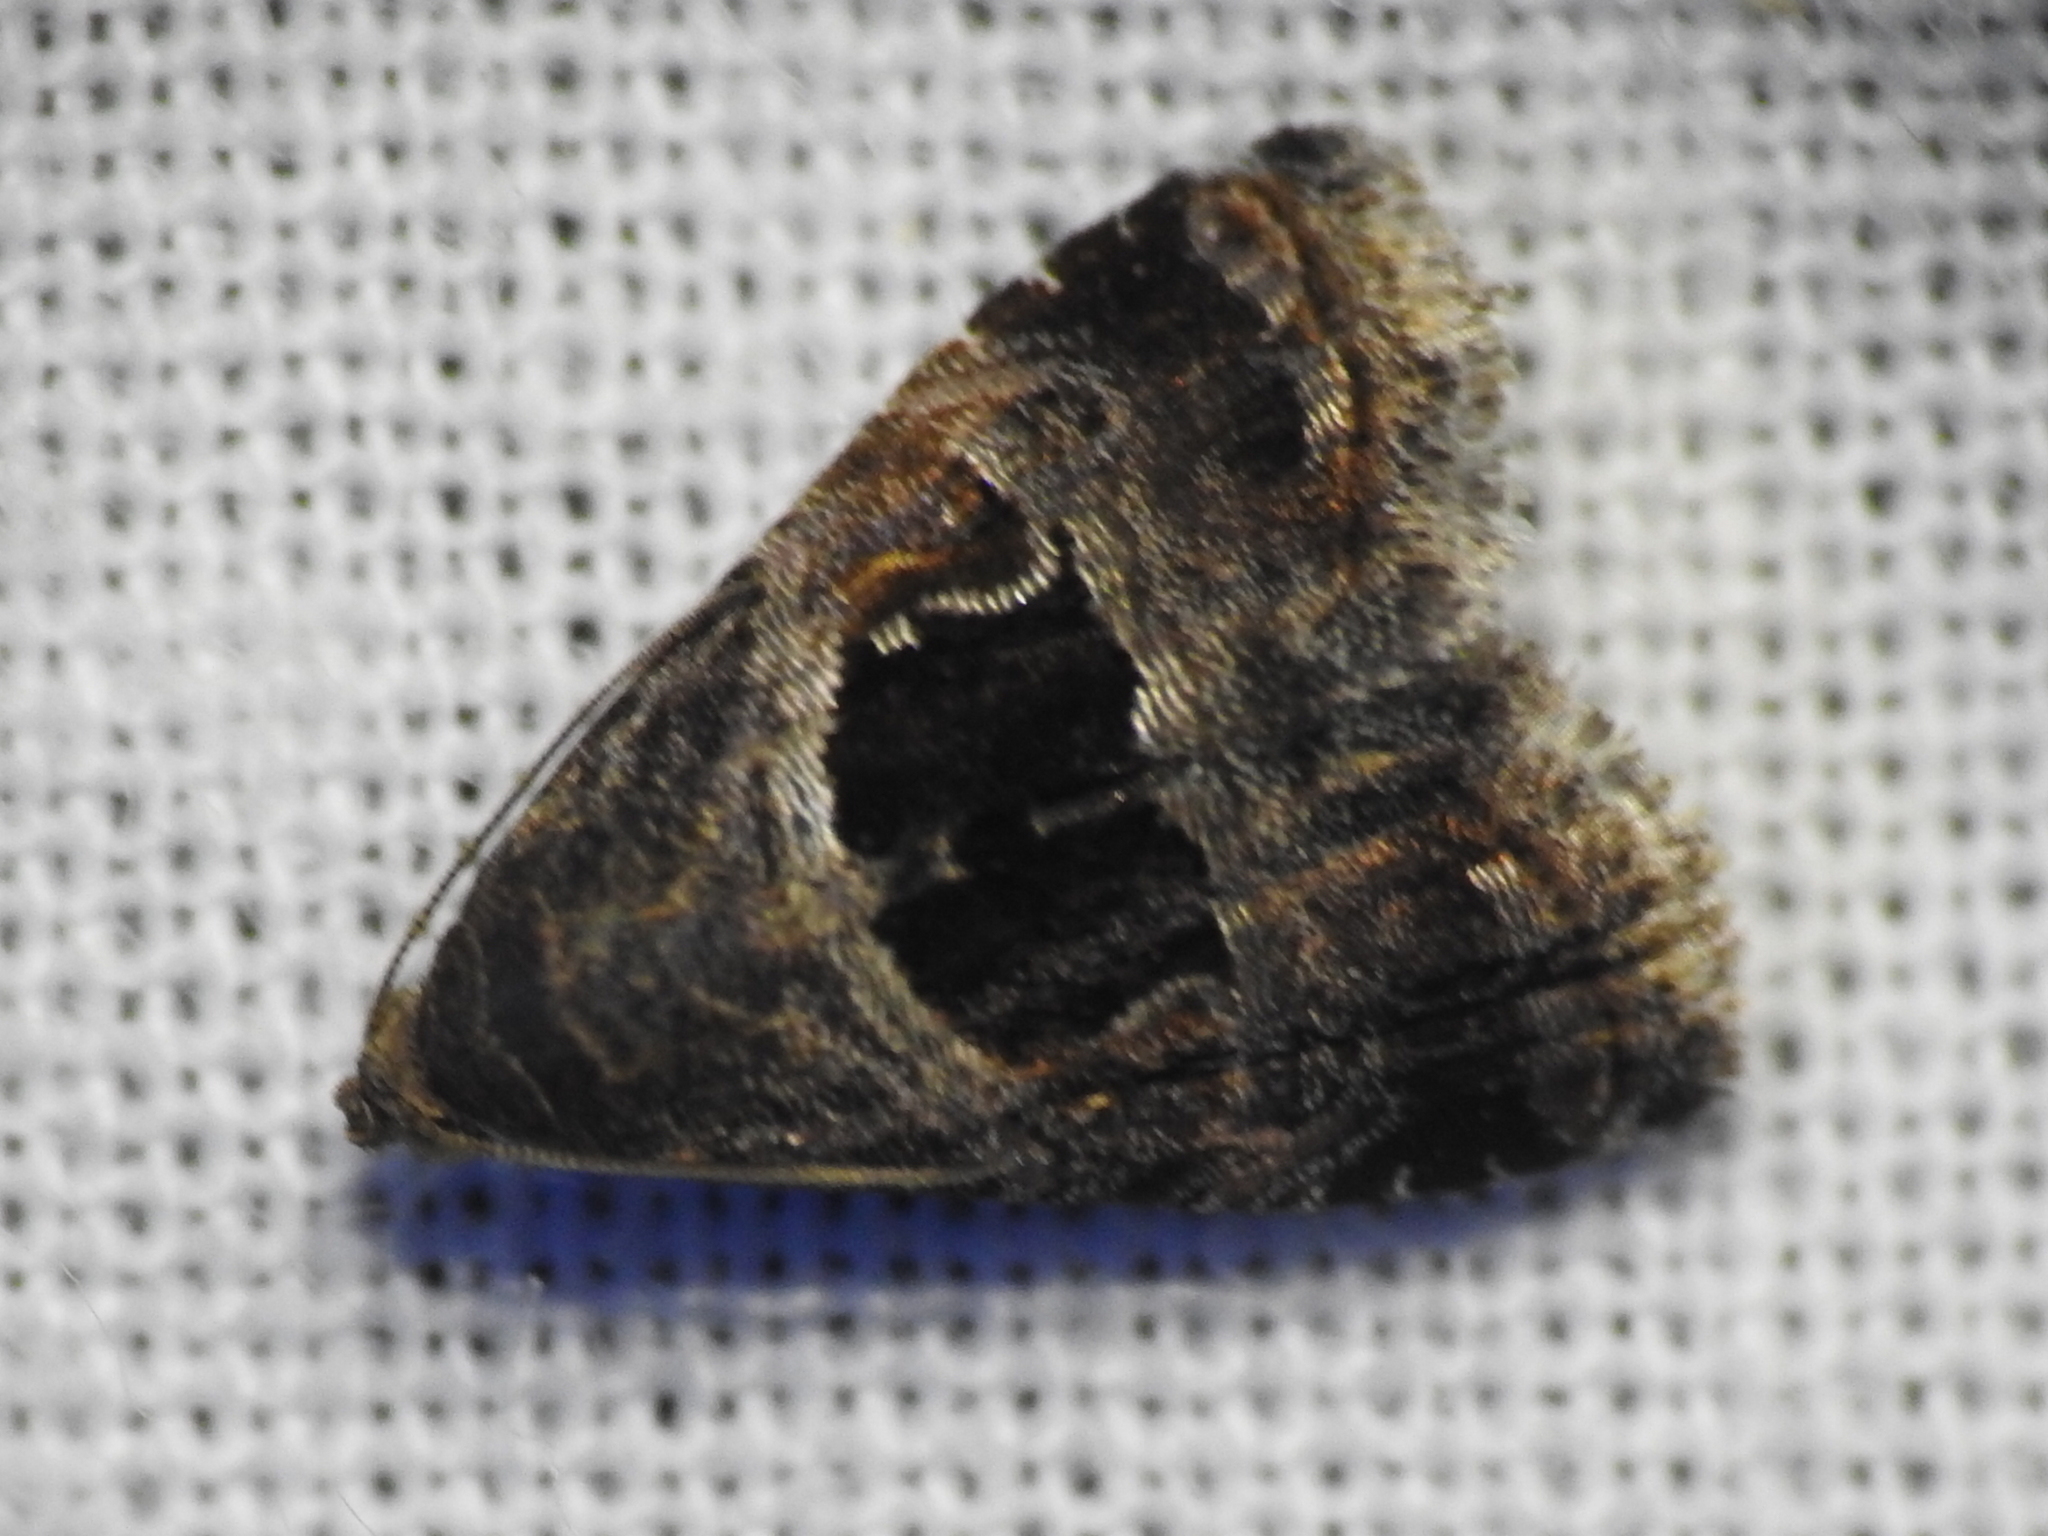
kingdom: Animalia
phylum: Arthropoda
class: Insecta
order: Lepidoptera
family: Noctuidae
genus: Tripudia
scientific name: Tripudia quadrifera
